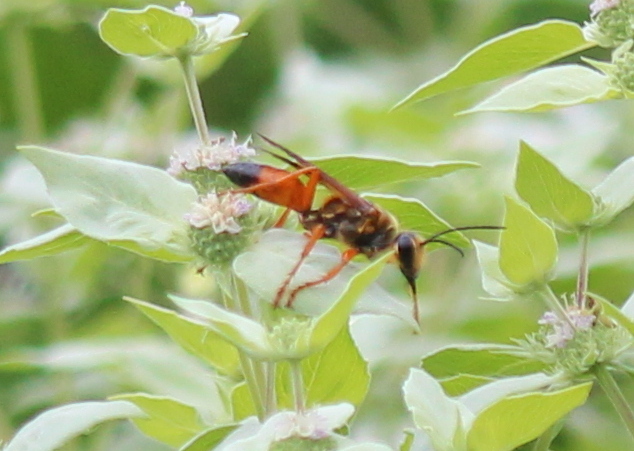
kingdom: Animalia
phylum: Arthropoda
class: Insecta
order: Hymenoptera
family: Sphecidae
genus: Sphex
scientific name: Sphex ichneumoneus
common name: Great golden digger wasp
